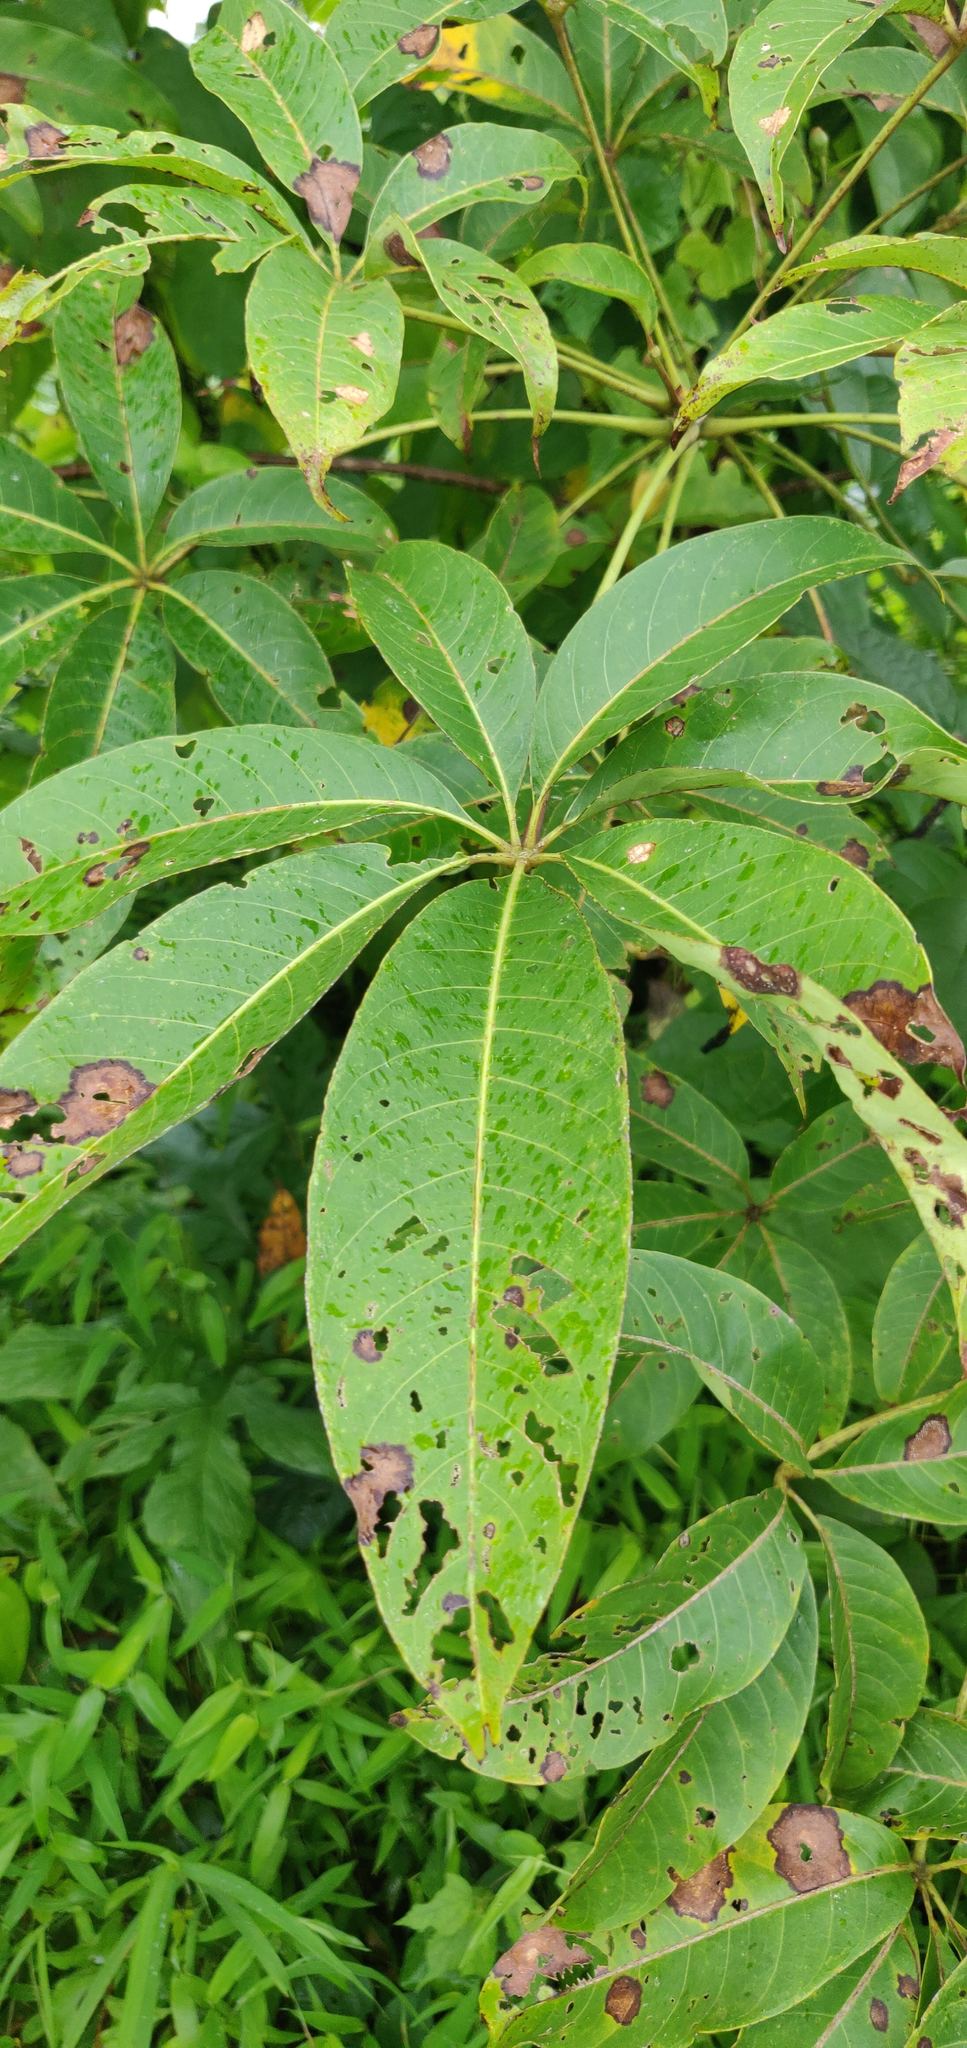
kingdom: Plantae
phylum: Tracheophyta
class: Magnoliopsida
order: Malvales
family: Malvaceae
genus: Bombax
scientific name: Bombax ceiba
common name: Northern-cottonwood
